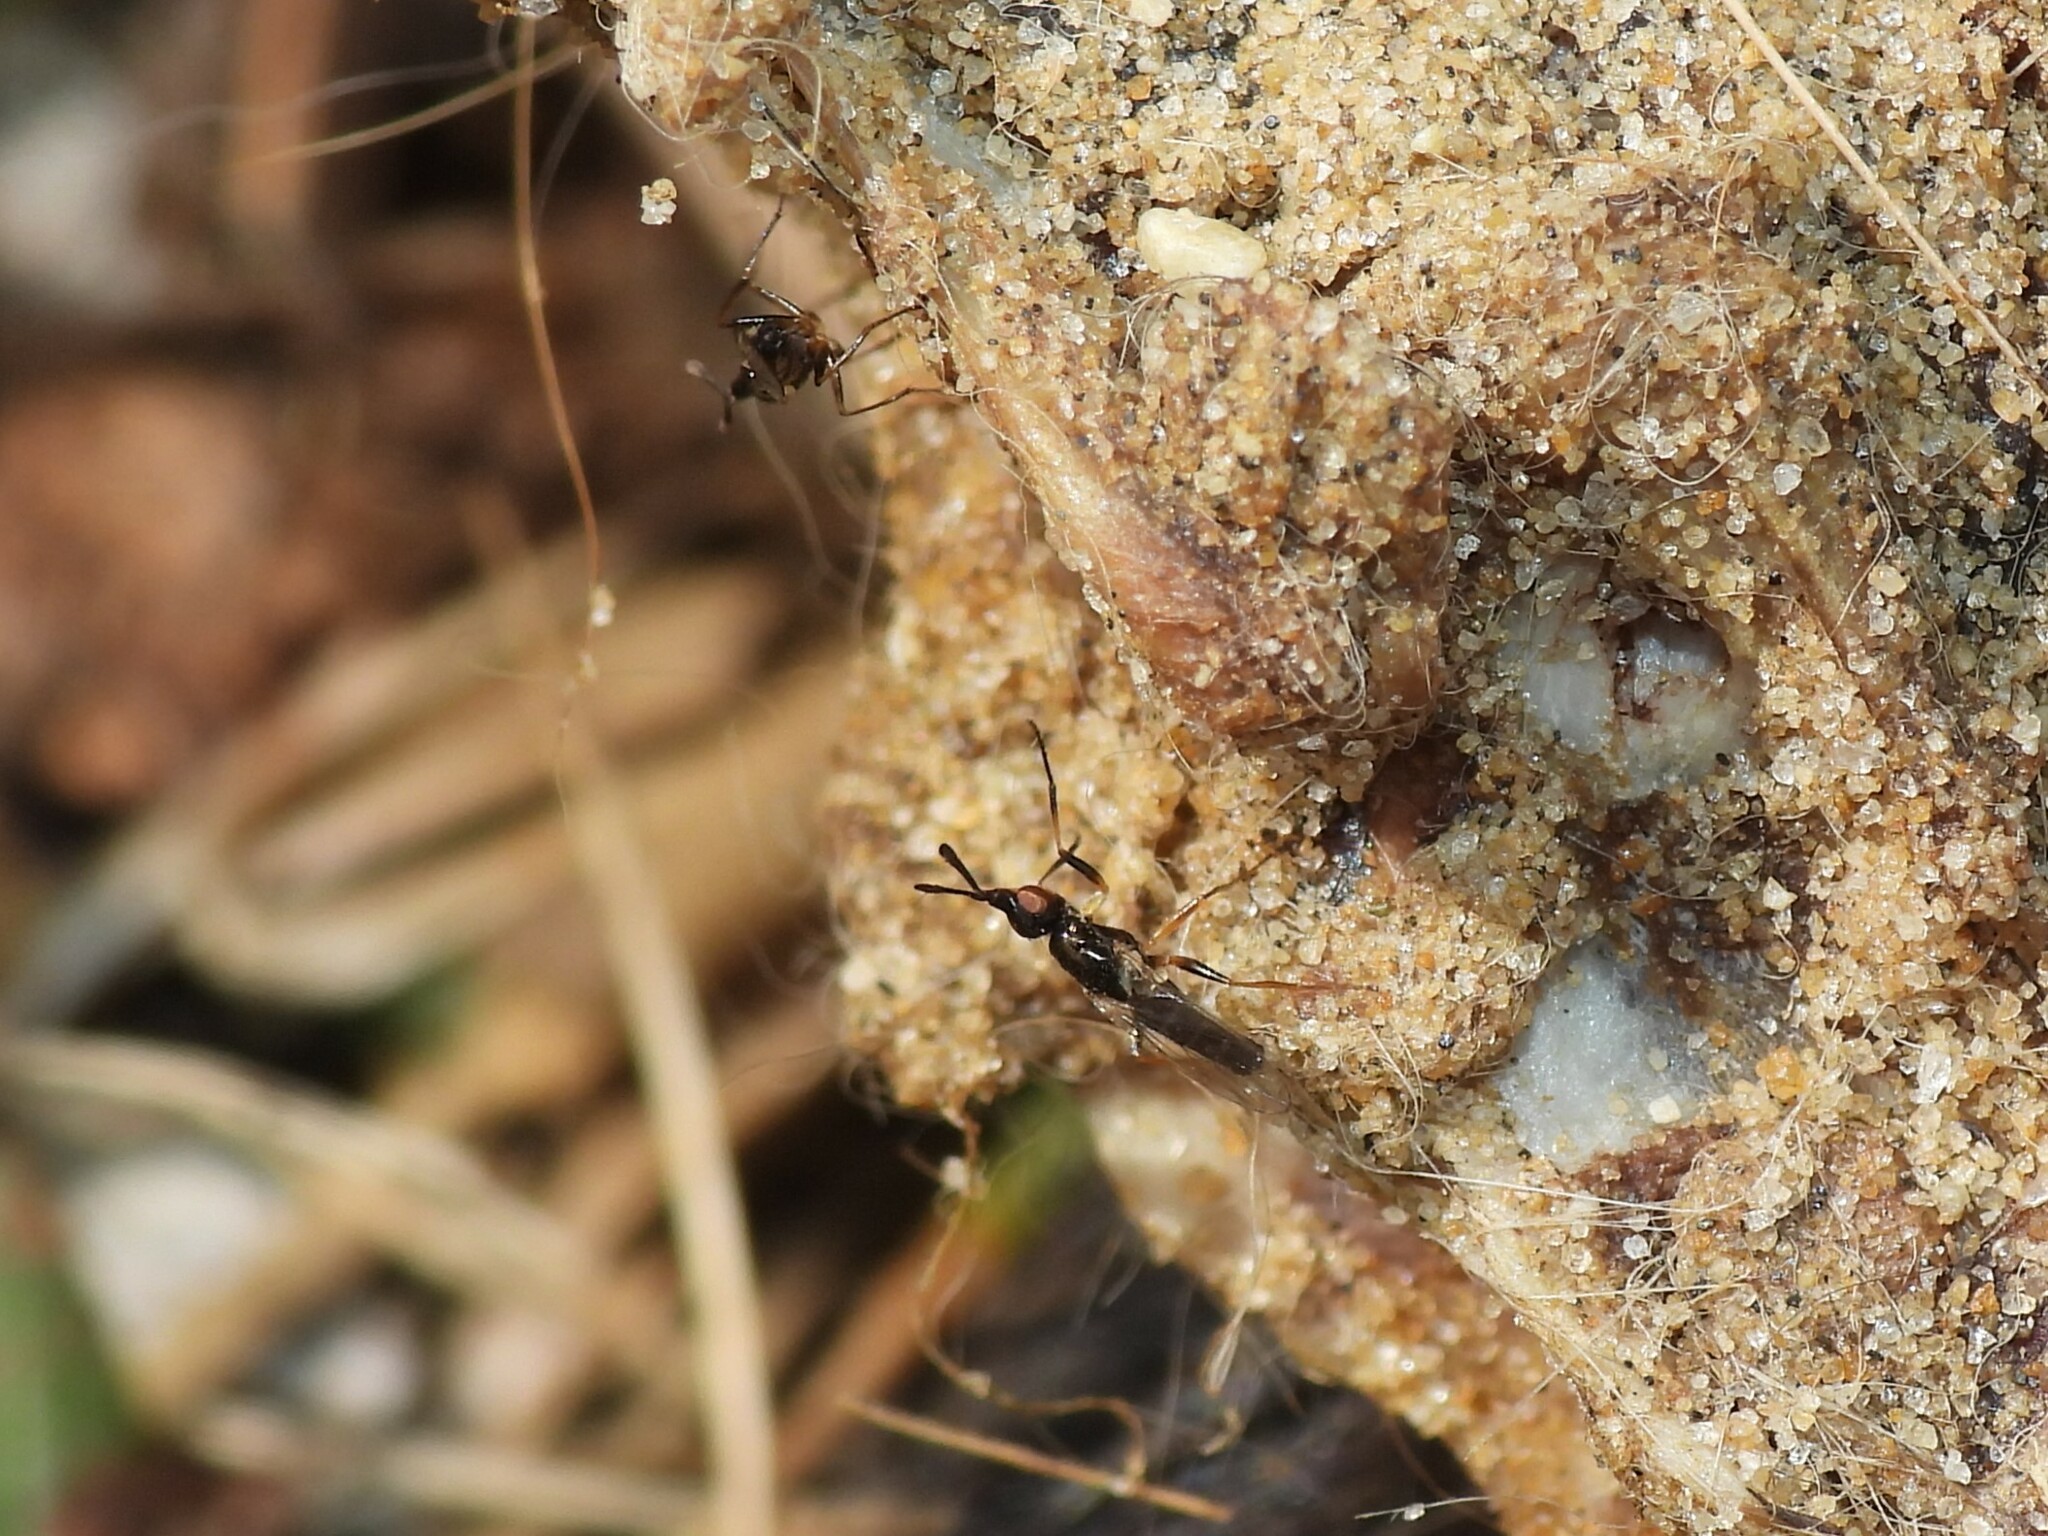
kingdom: Animalia
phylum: Arthropoda
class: Insecta
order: Diptera
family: Piophilidae
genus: Prochyliza
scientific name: Prochyliza xanthostoma
